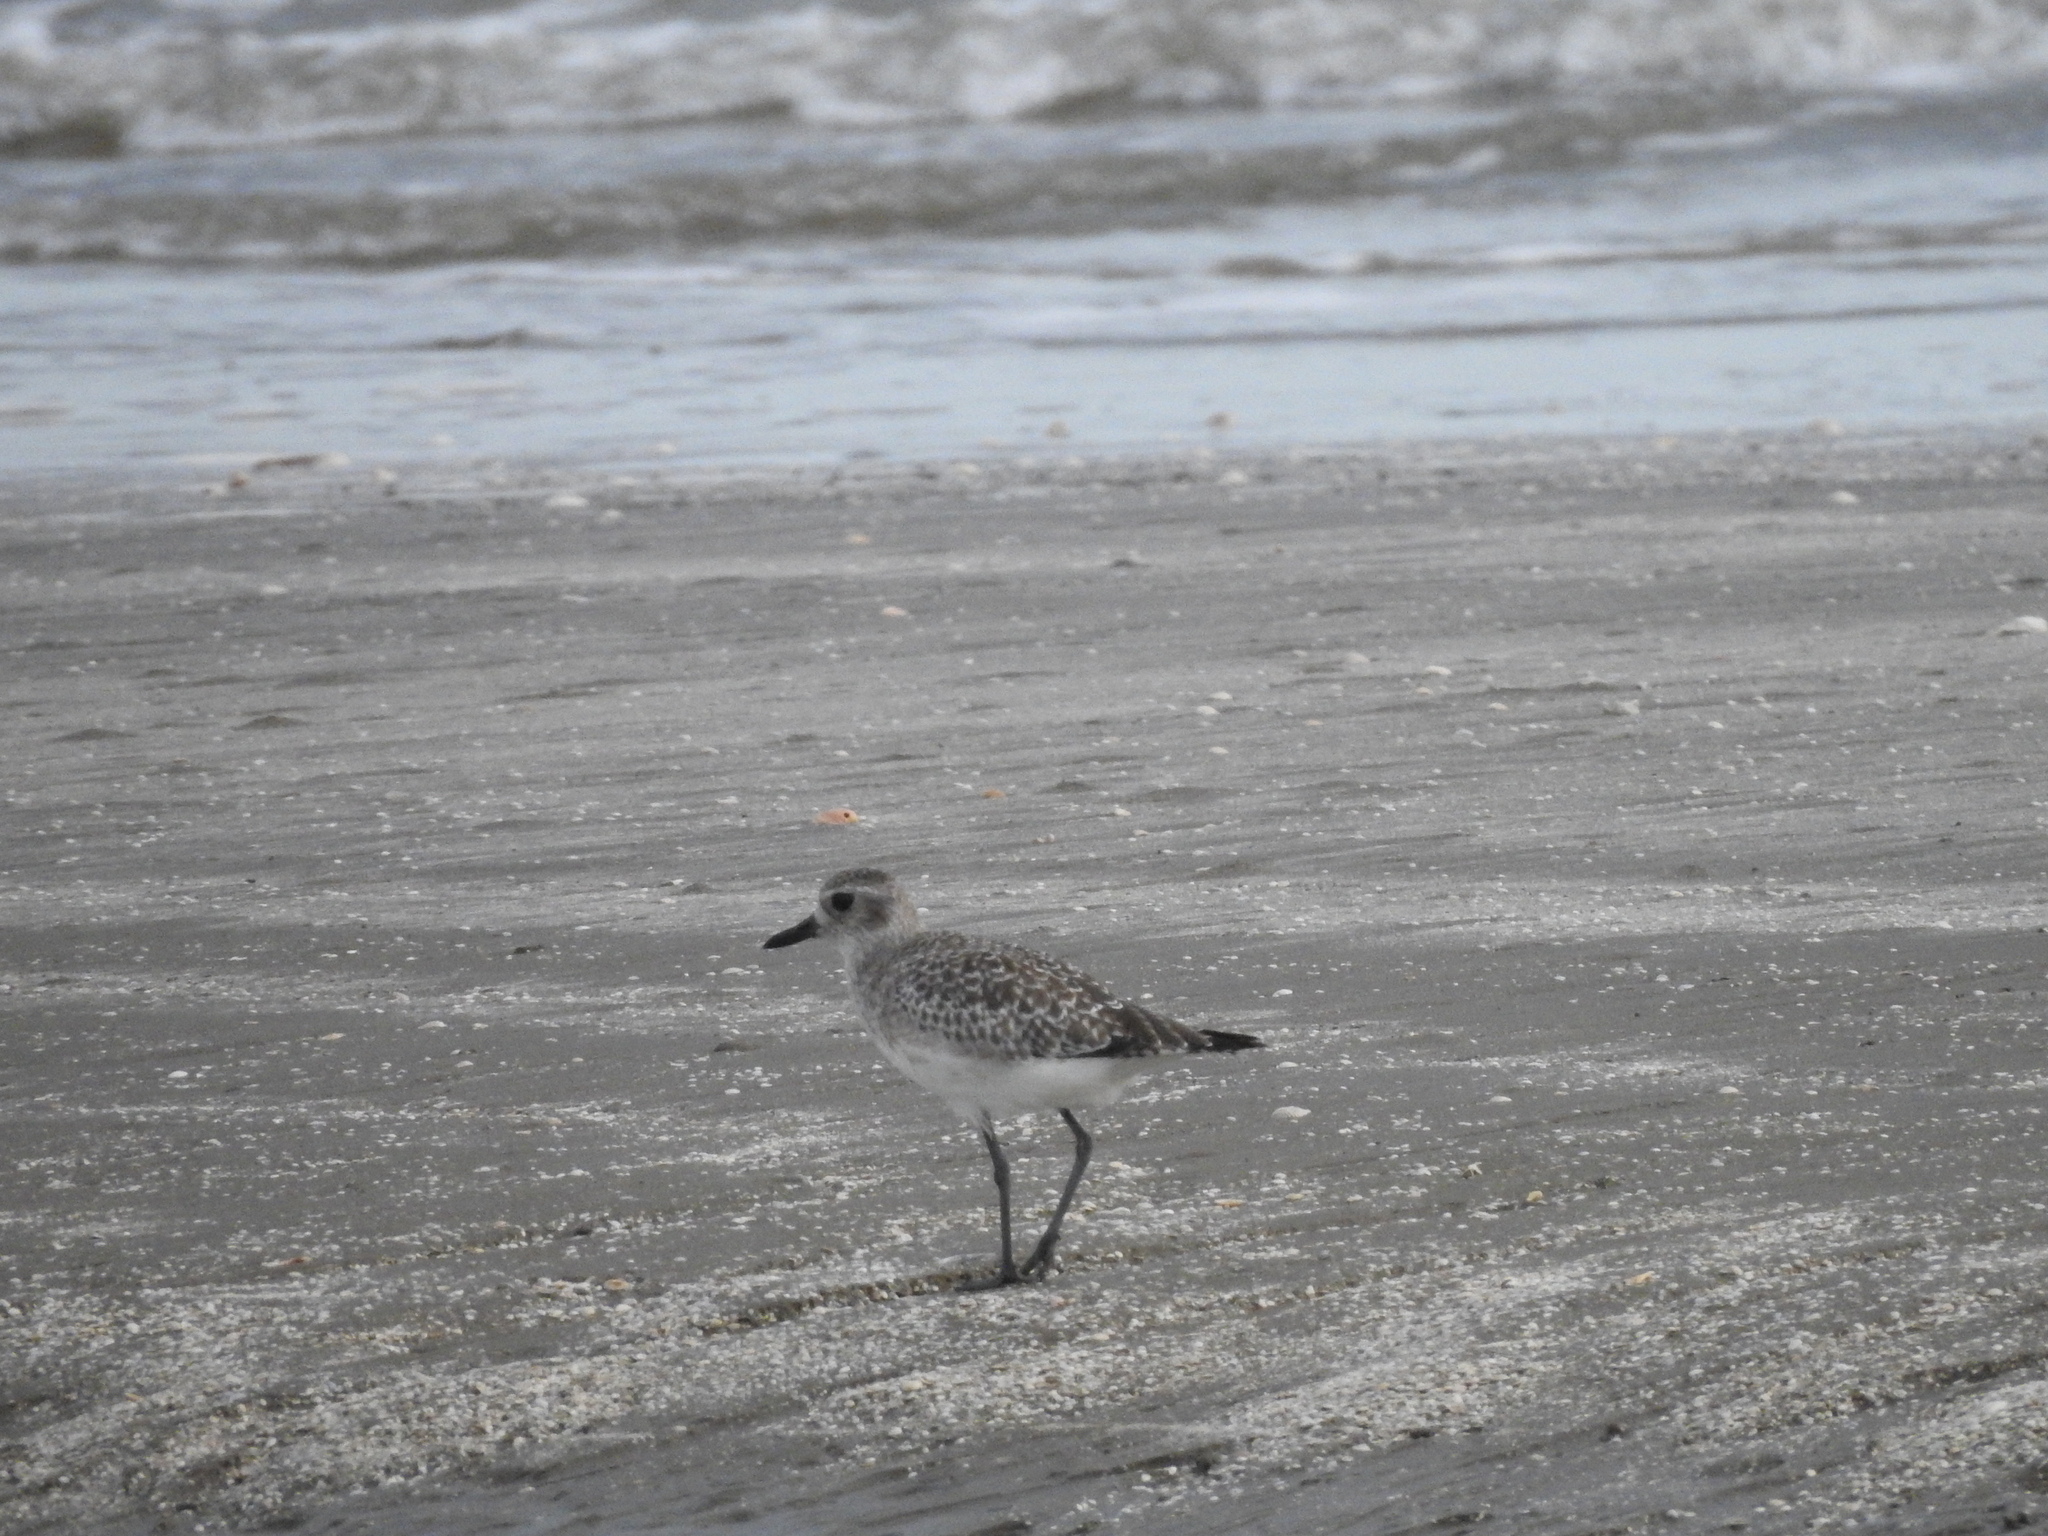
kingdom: Animalia
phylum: Chordata
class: Aves
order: Charadriiformes
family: Charadriidae
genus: Pluvialis
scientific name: Pluvialis squatarola
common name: Grey plover
